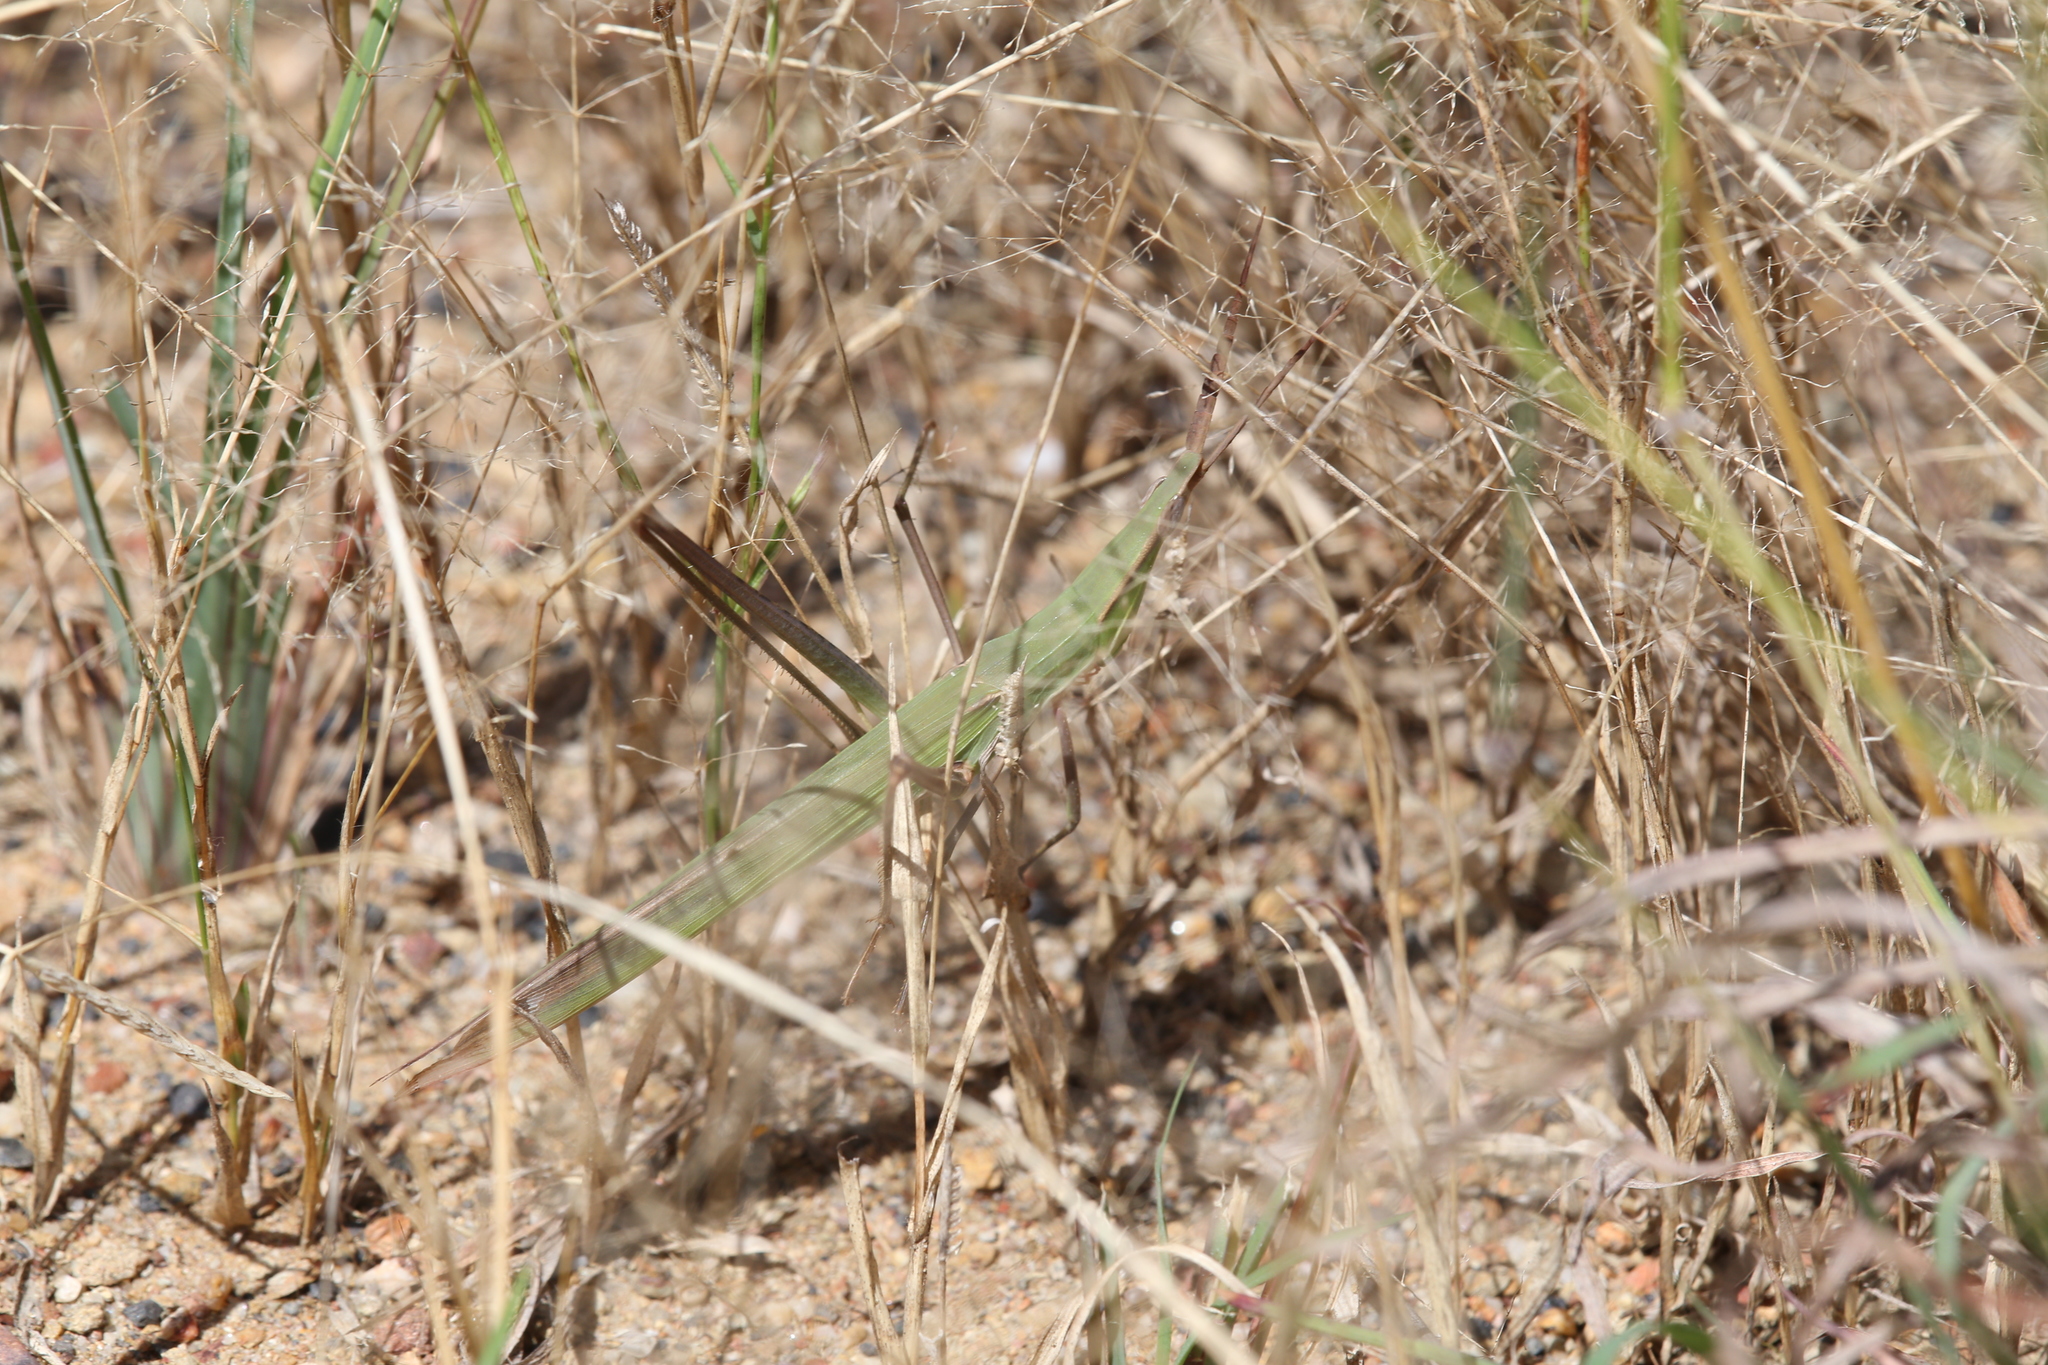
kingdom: Animalia
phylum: Arthropoda
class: Insecta
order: Orthoptera
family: Acrididae
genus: Acrida
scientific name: Acrida conica
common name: Giant green slantface
